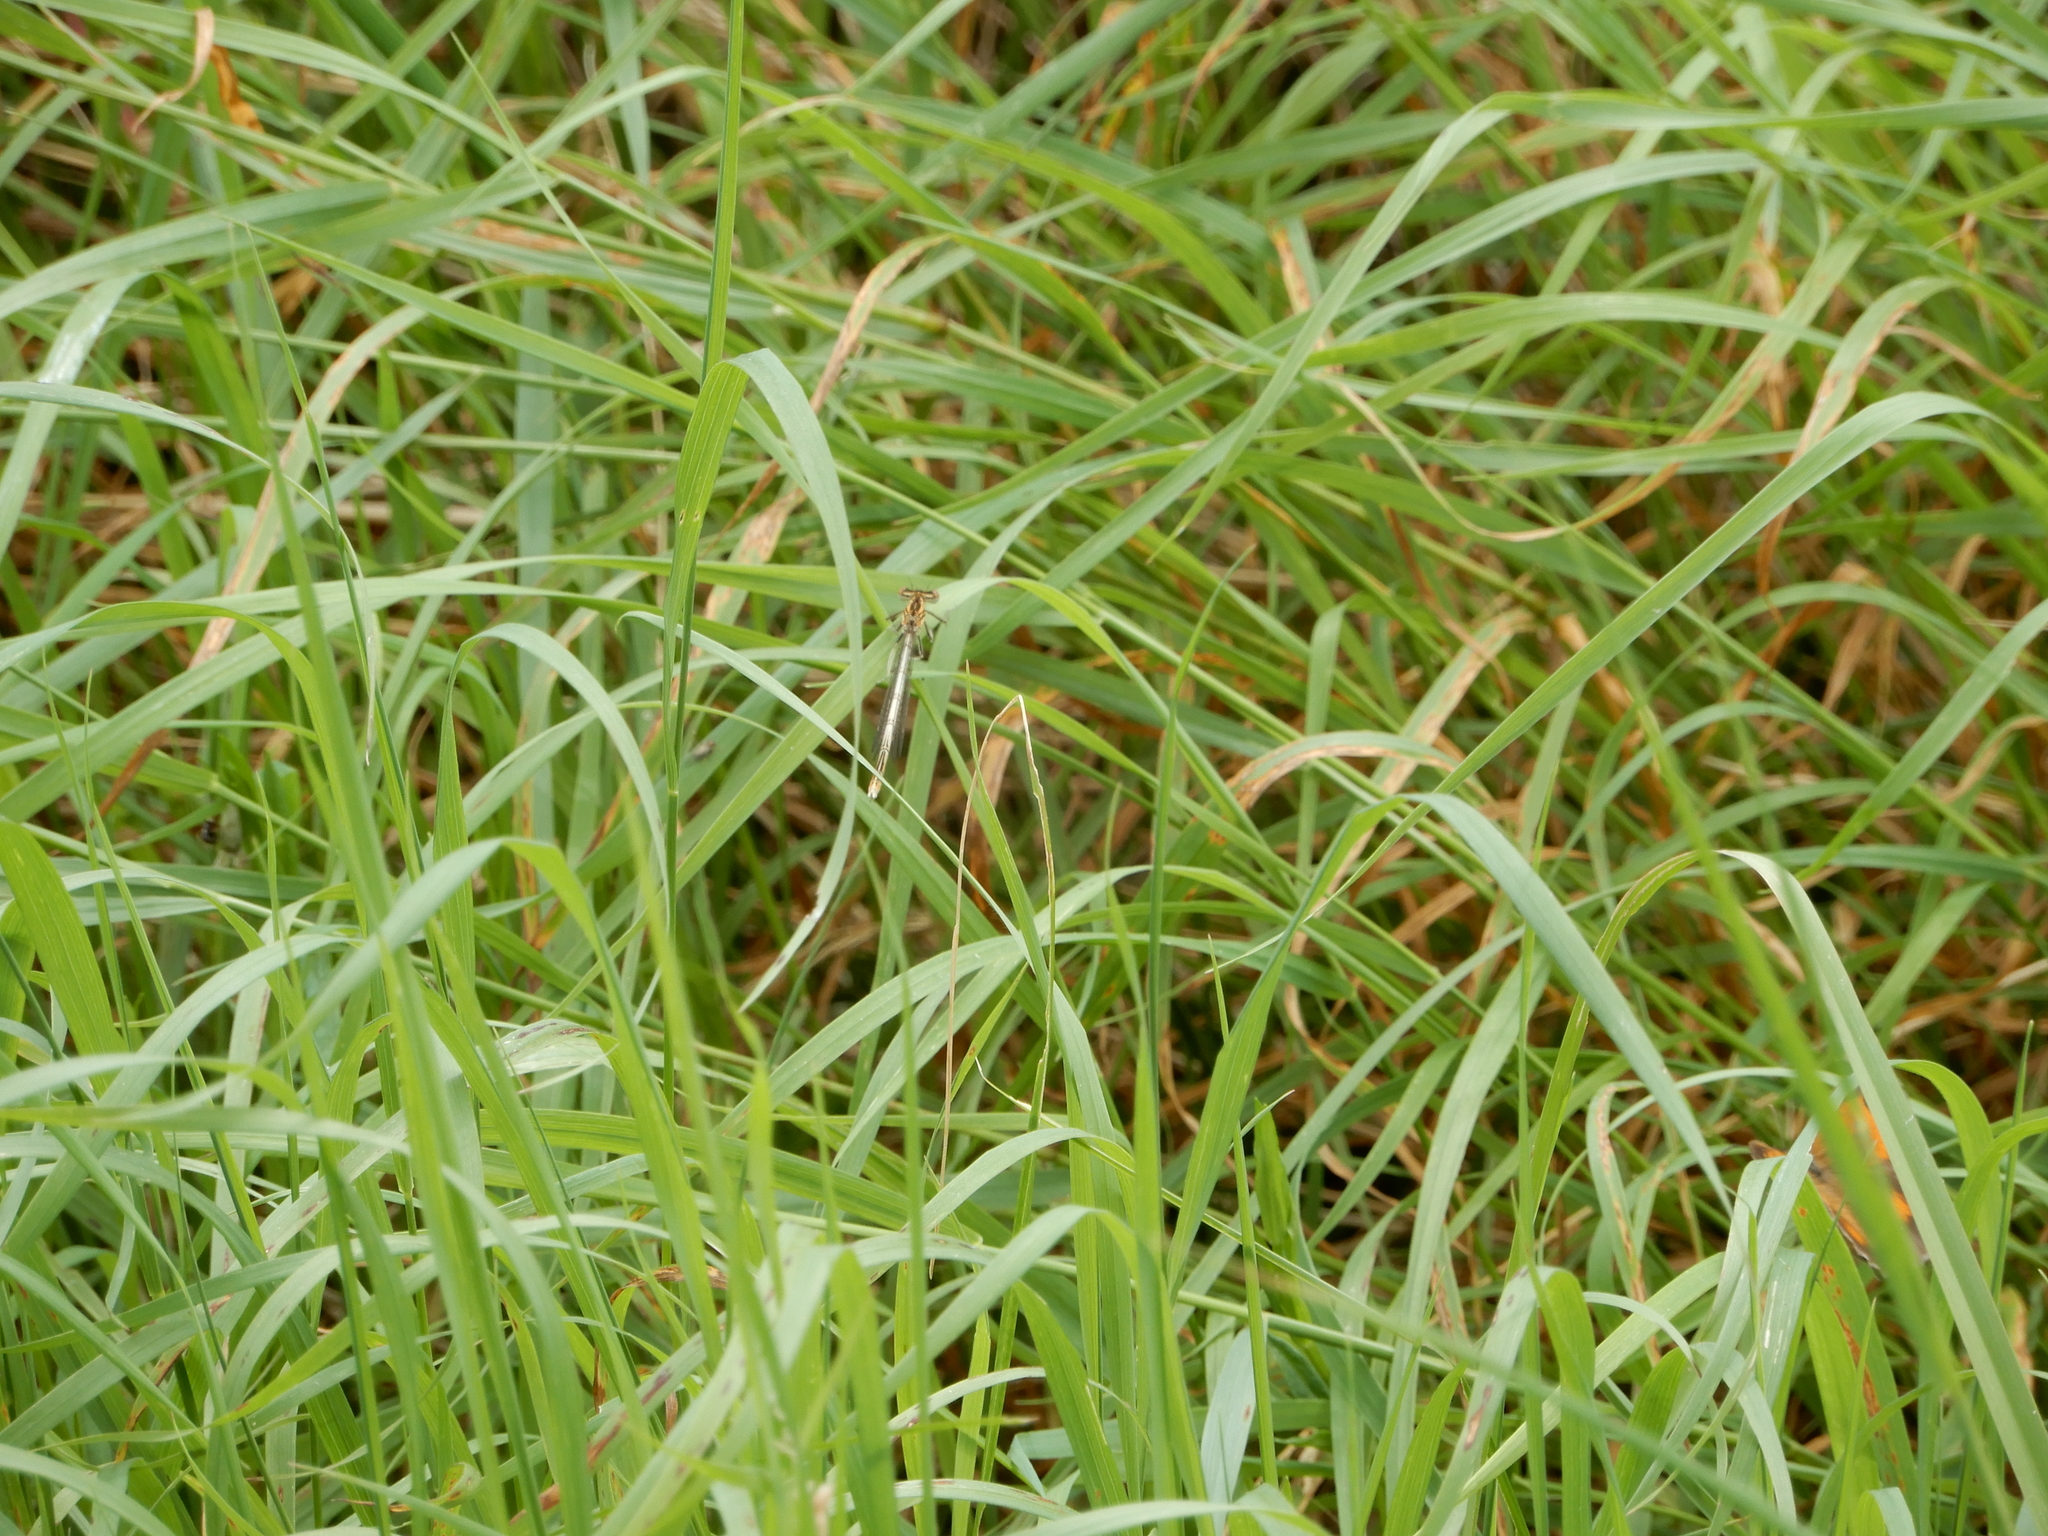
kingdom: Animalia
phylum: Arthropoda
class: Insecta
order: Odonata
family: Platycnemididae
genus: Platycnemis
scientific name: Platycnemis pennipes
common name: White-legged damselfly
